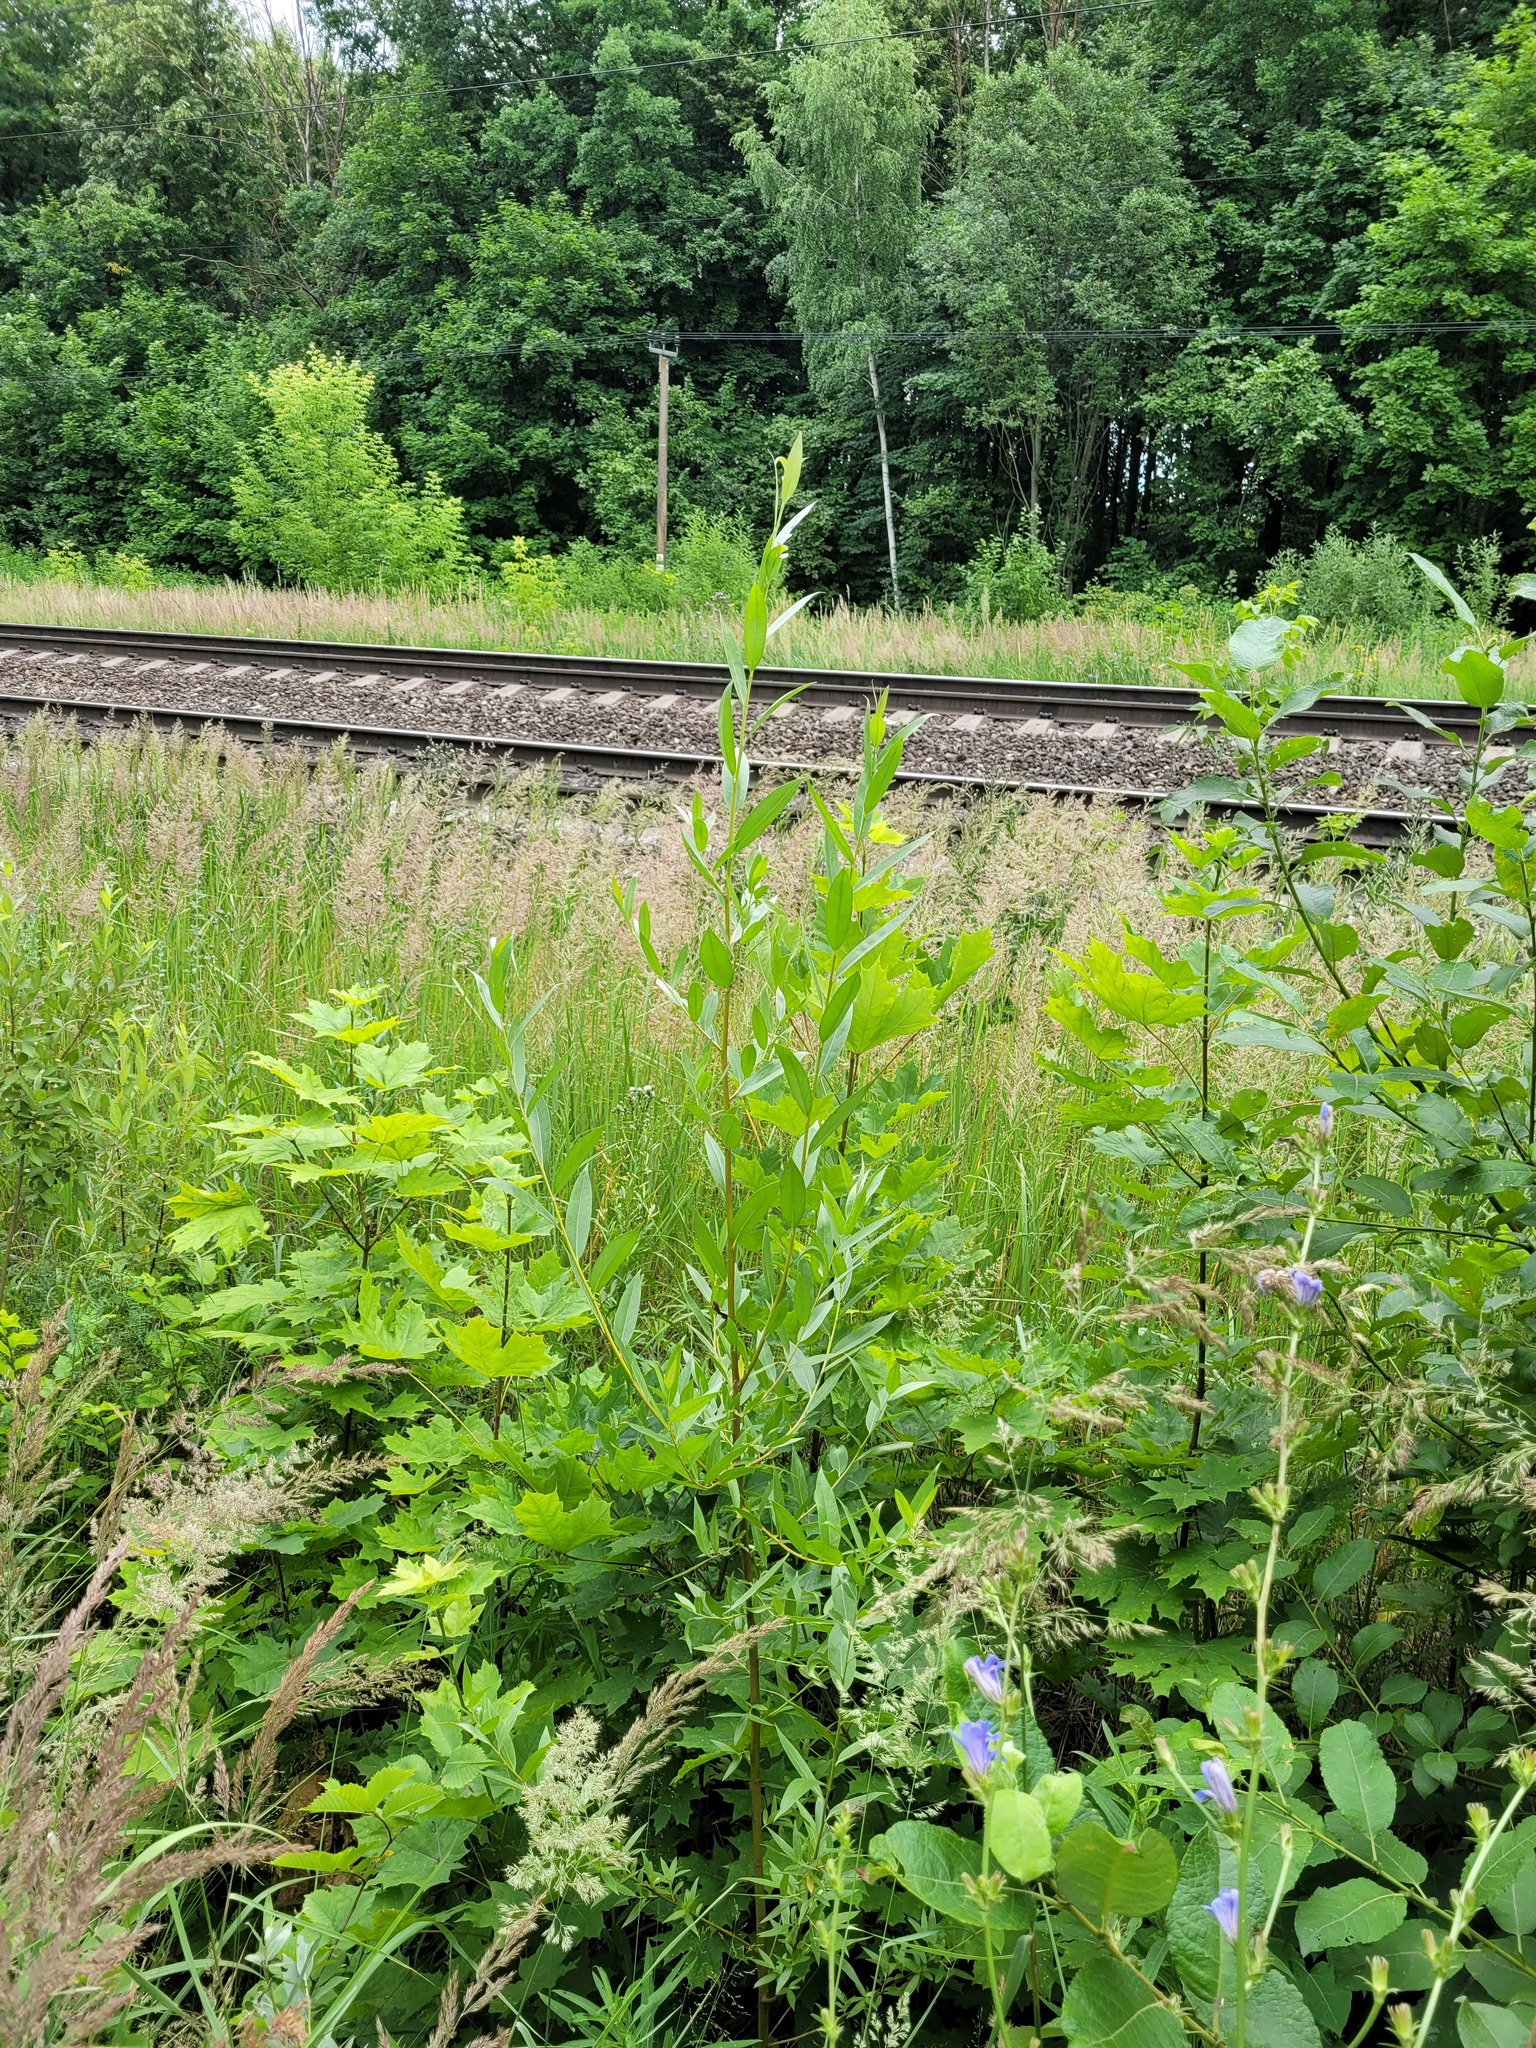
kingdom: Plantae
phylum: Tracheophyta
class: Magnoliopsida
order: Malpighiales
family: Salicaceae
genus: Salix
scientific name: Salix alba
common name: White willow
